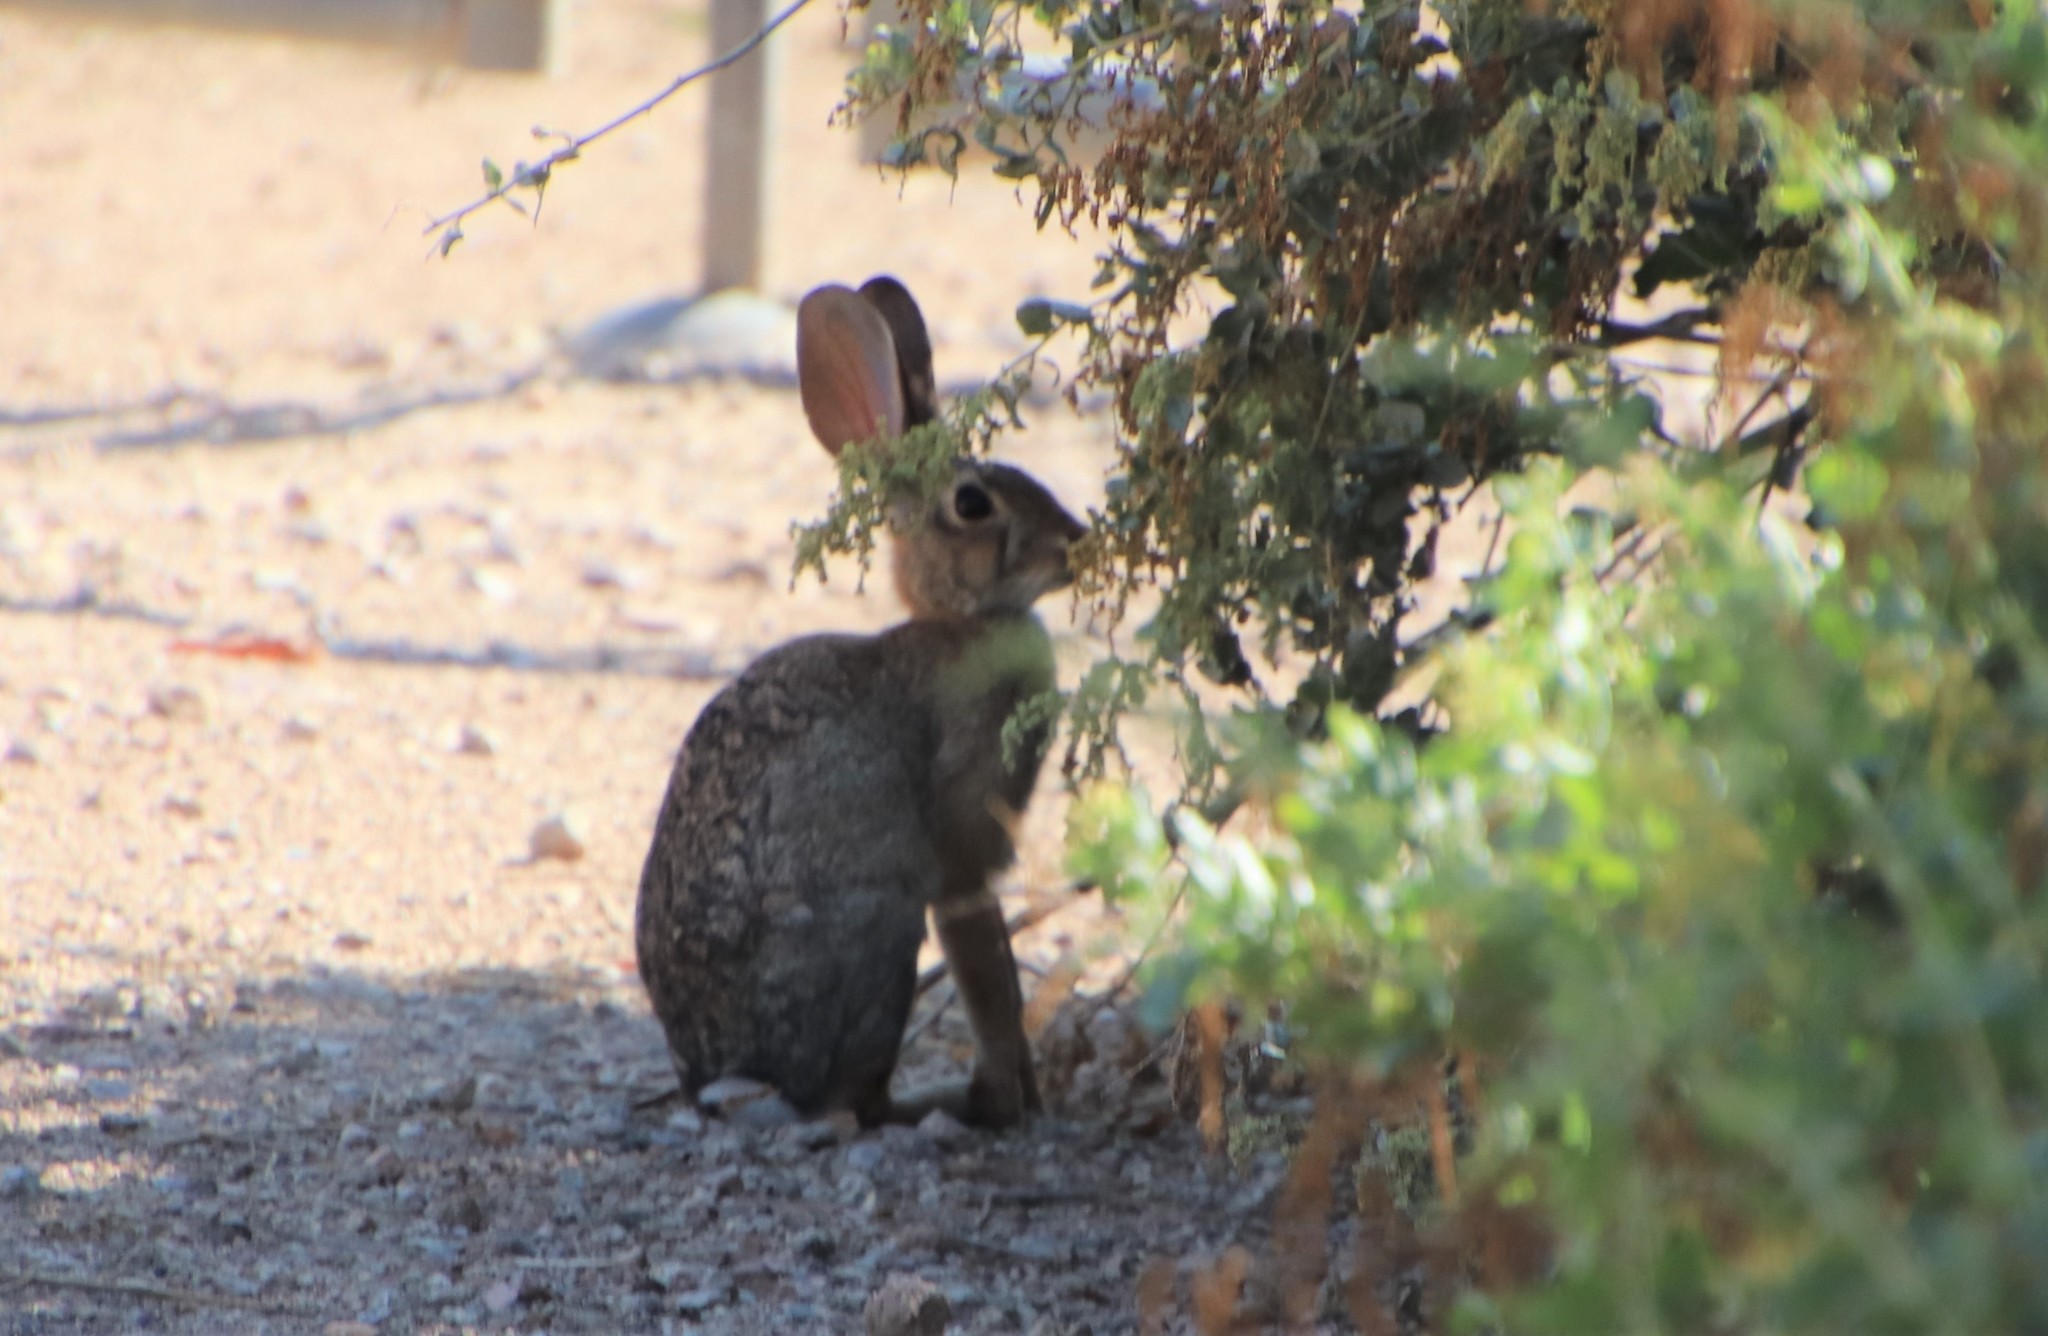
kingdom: Animalia
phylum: Chordata
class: Mammalia
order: Lagomorpha
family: Leporidae
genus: Sylvilagus
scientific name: Sylvilagus audubonii
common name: Desert cottontail
